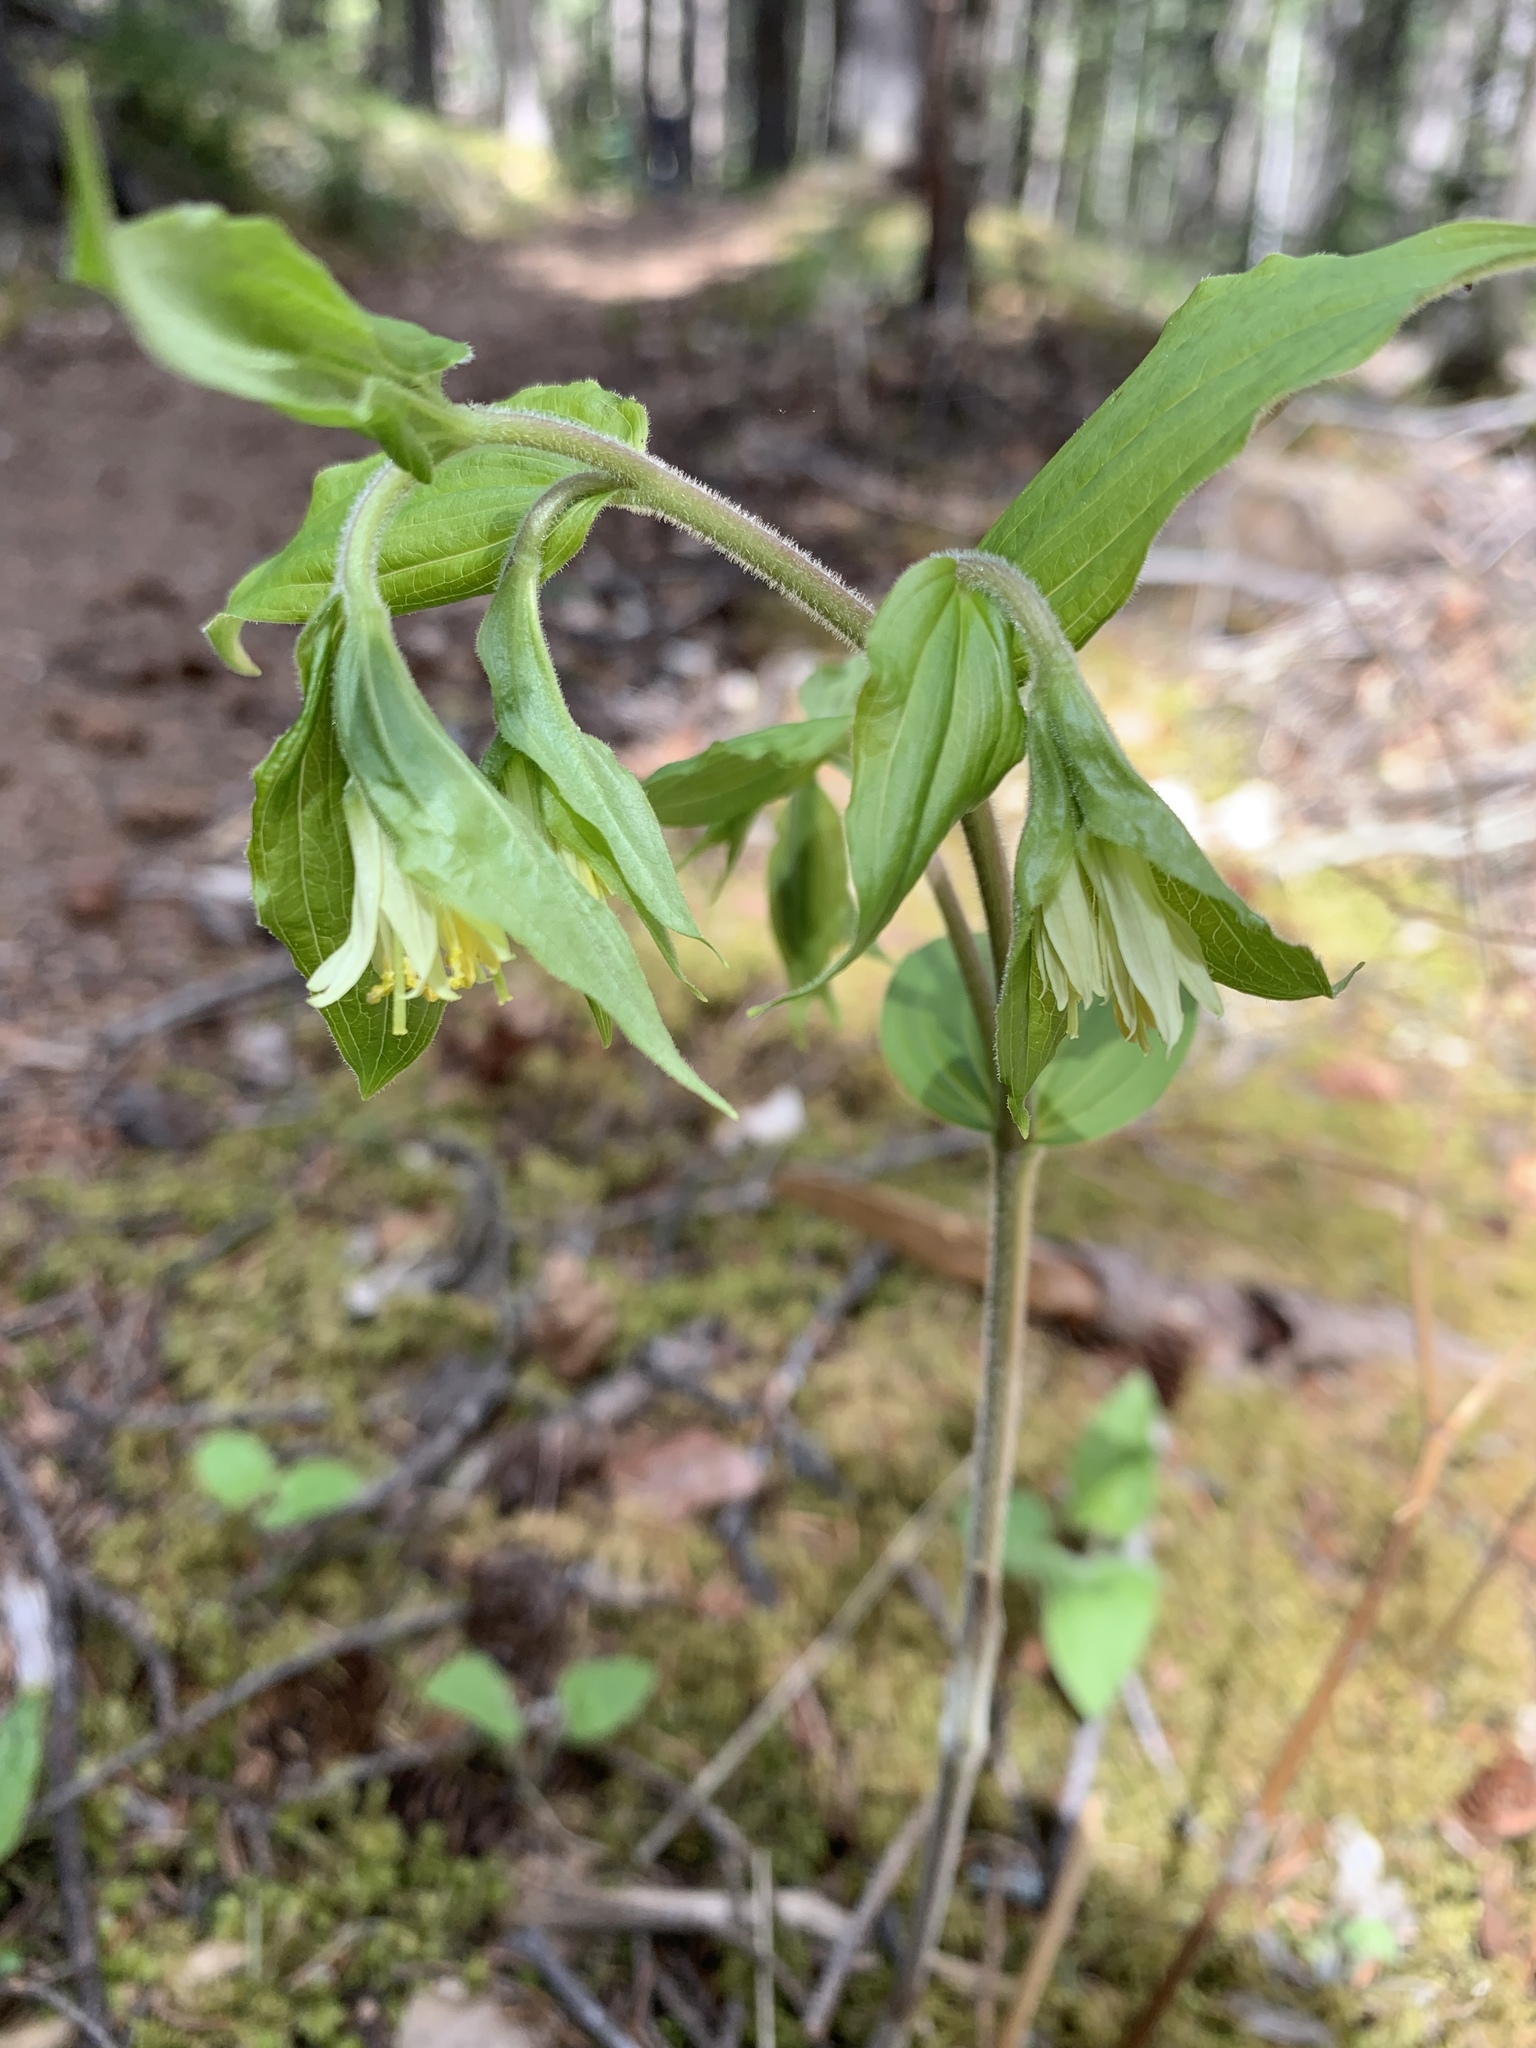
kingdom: Plantae
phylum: Tracheophyta
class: Liliopsida
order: Liliales
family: Liliaceae
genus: Prosartes
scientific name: Prosartes trachycarpa
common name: Rough-fruit fairy-bells
